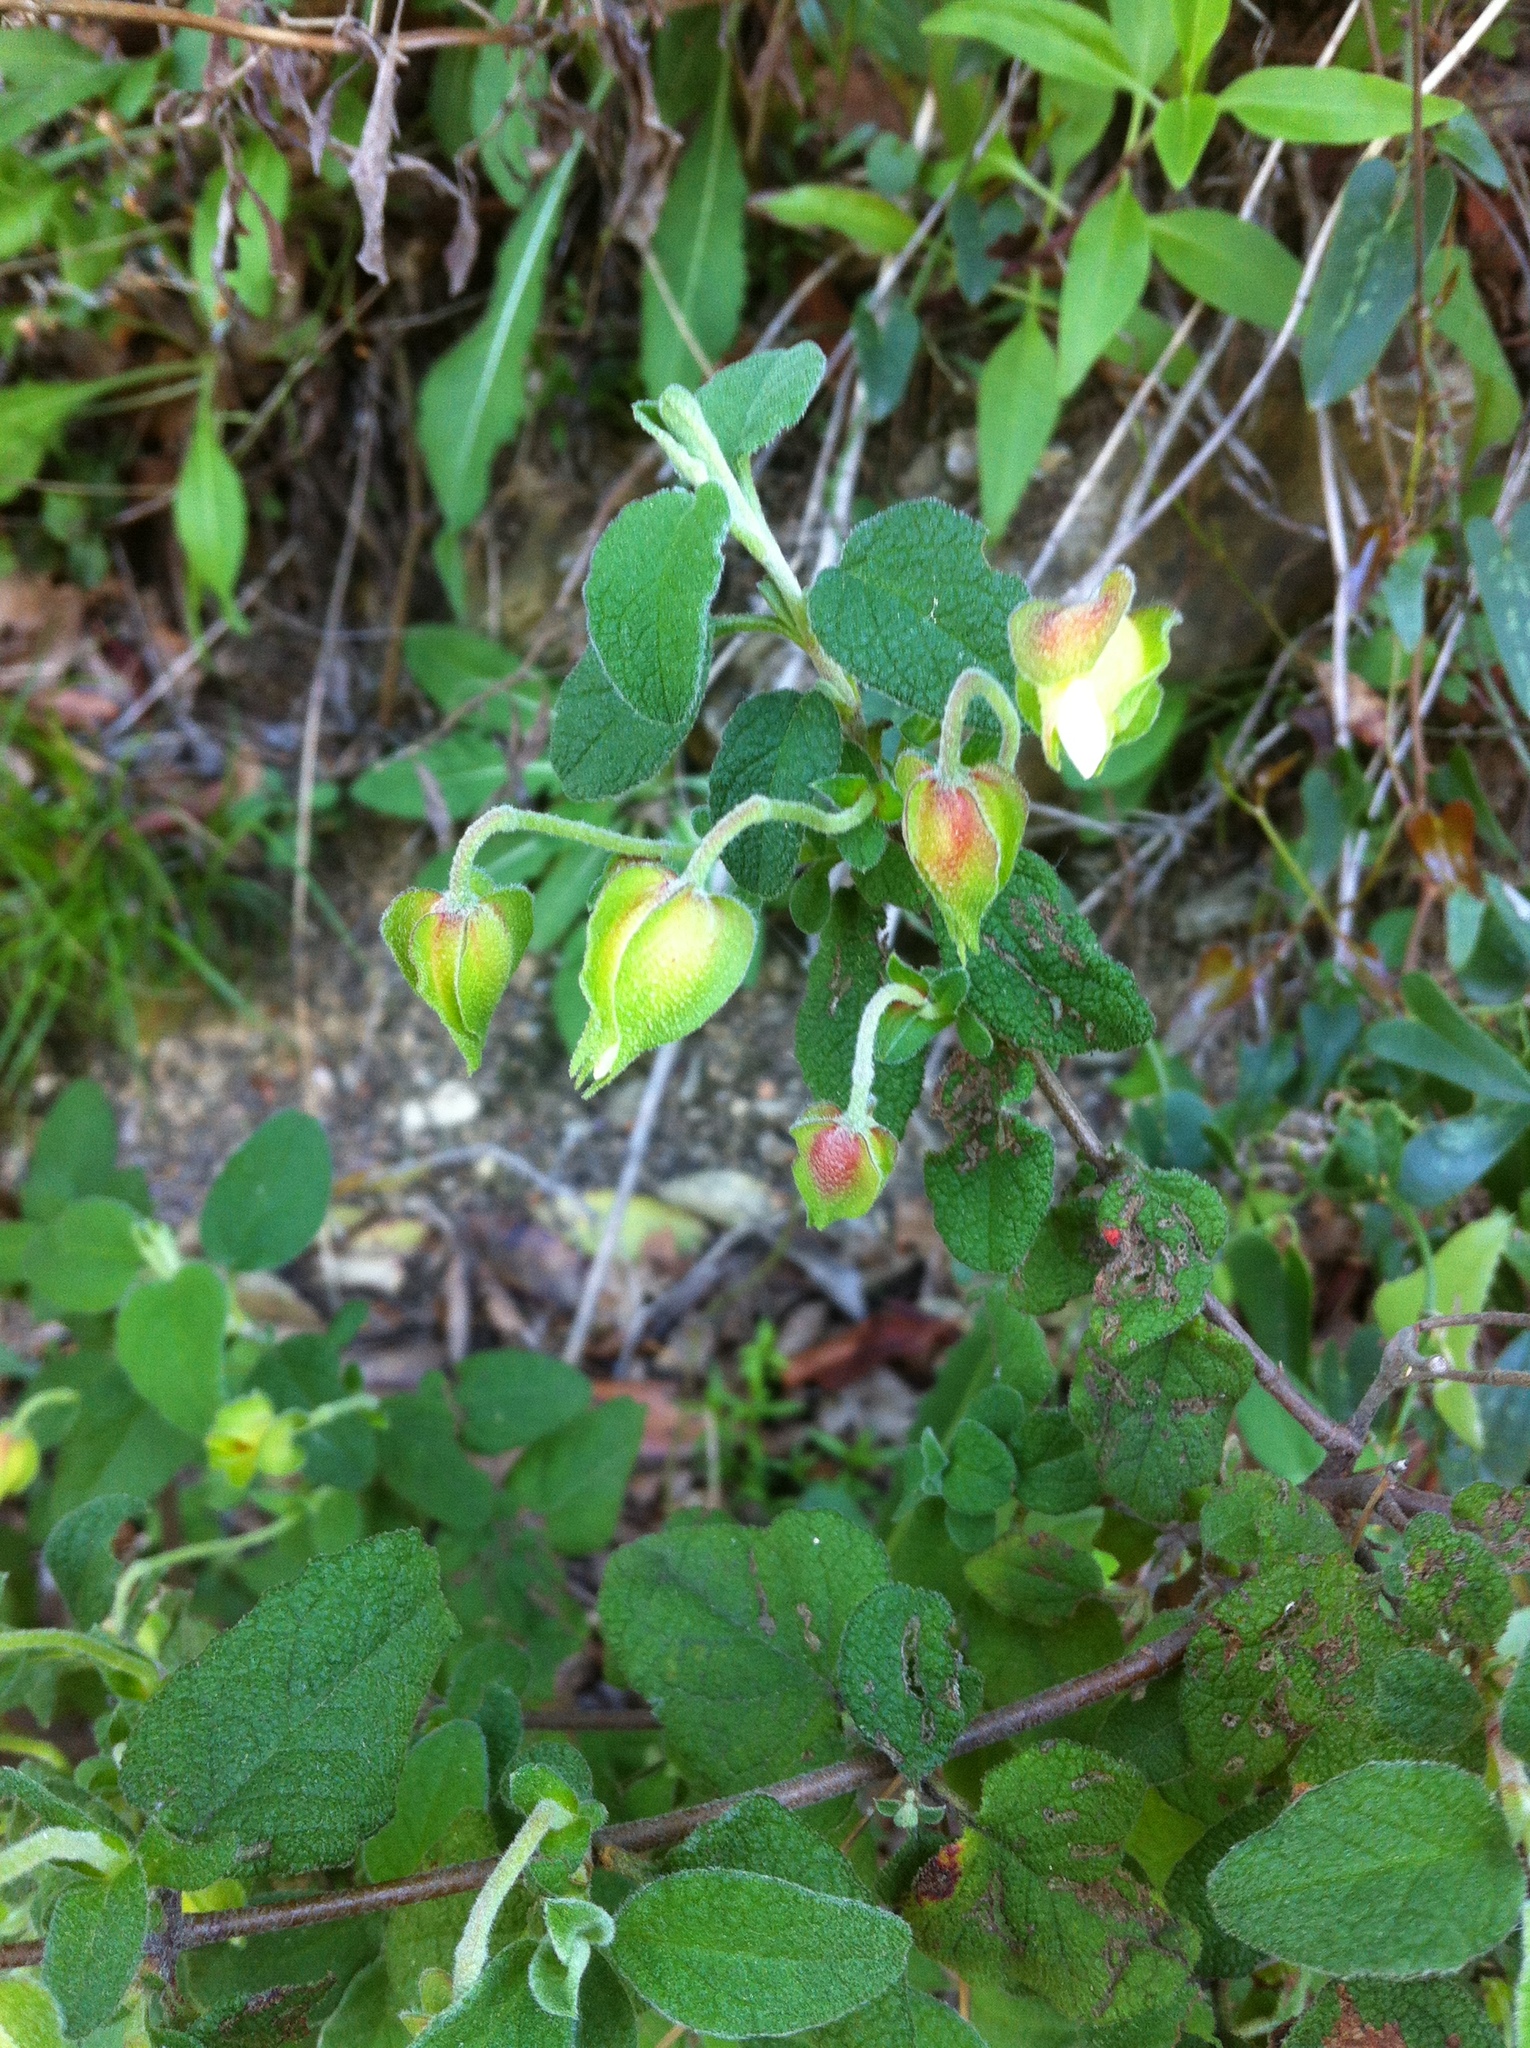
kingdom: Plantae
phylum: Tracheophyta
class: Magnoliopsida
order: Malvales
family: Cistaceae
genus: Cistus
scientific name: Cistus salviifolius
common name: Salvia cistus
